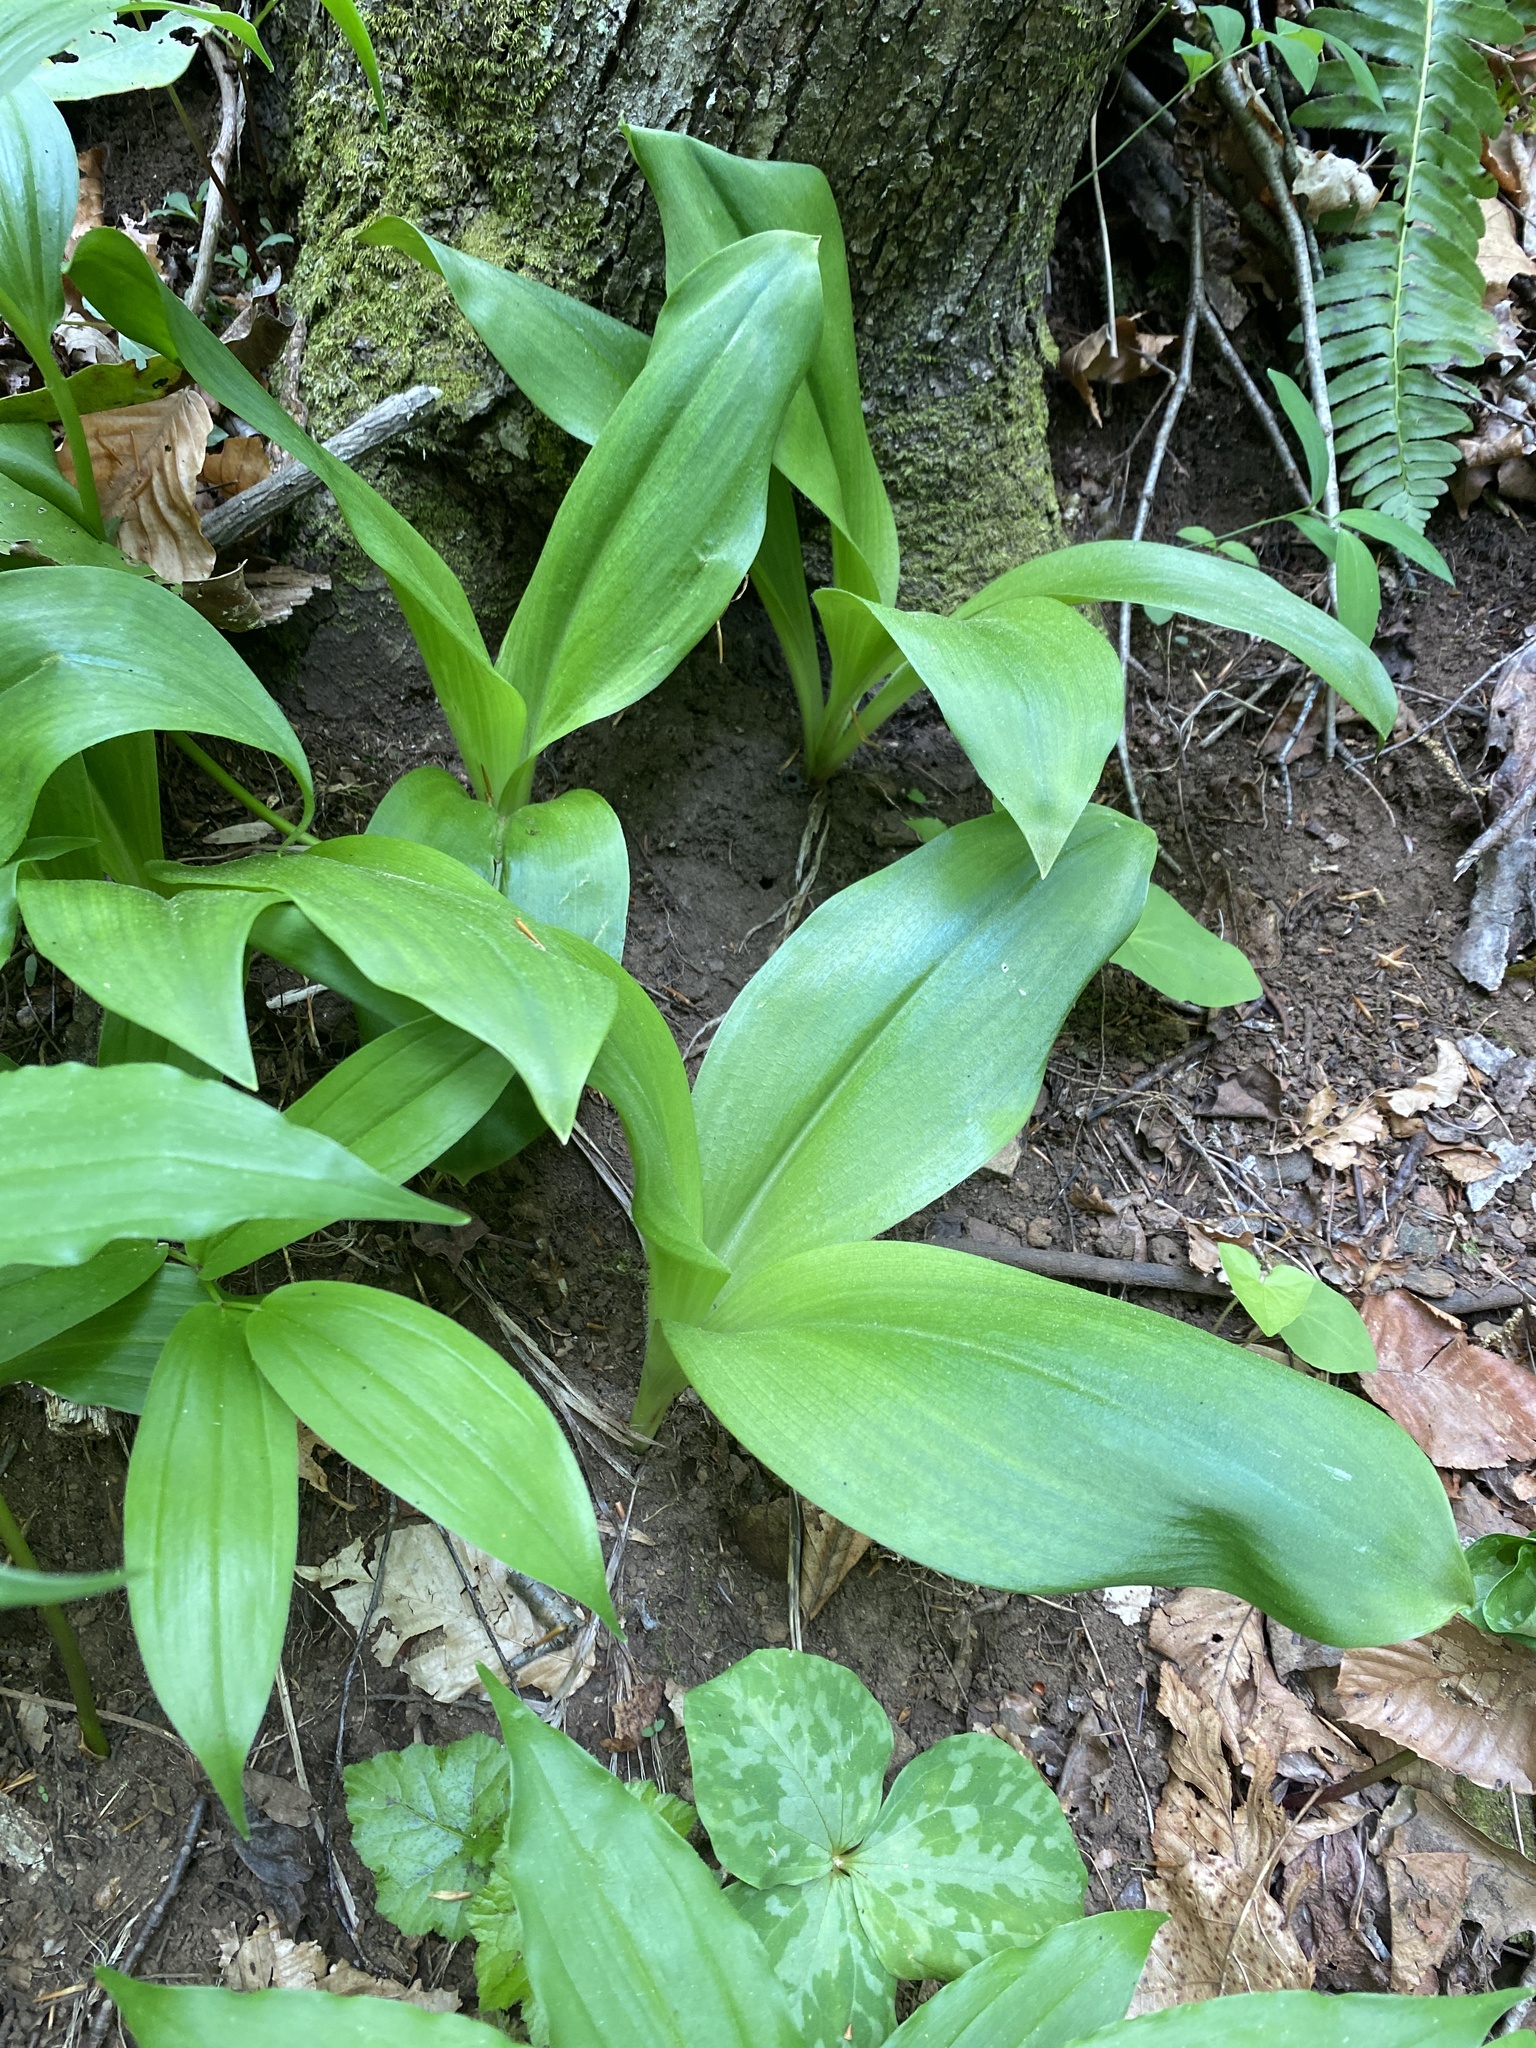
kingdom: Plantae
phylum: Tracheophyta
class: Liliopsida
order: Liliales
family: Liliaceae
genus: Clintonia
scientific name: Clintonia umbellulata
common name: Speckle wood-lily
